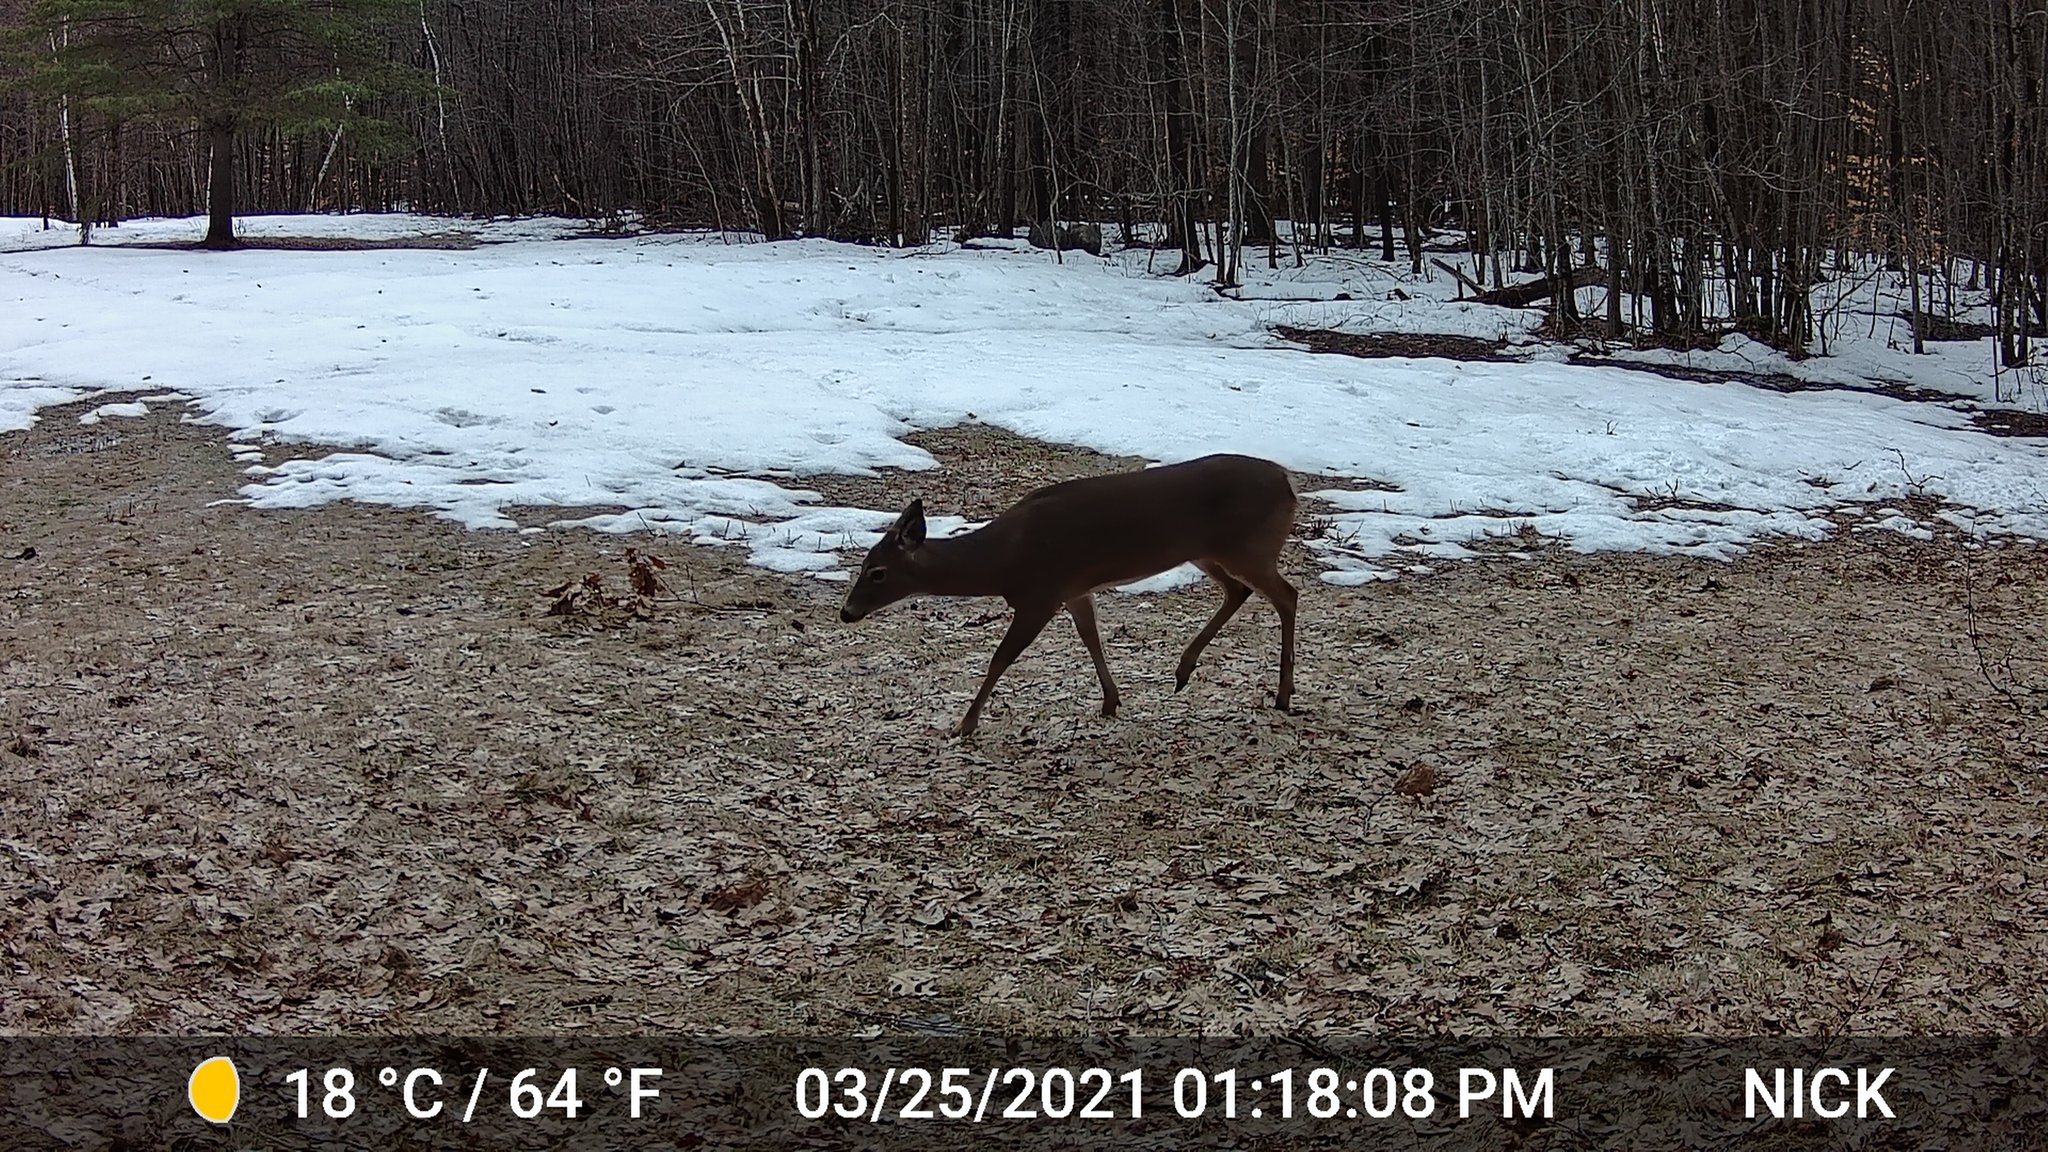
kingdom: Animalia
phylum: Chordata
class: Mammalia
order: Artiodactyla
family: Cervidae
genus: Odocoileus
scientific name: Odocoileus virginianus
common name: White-tailed deer
